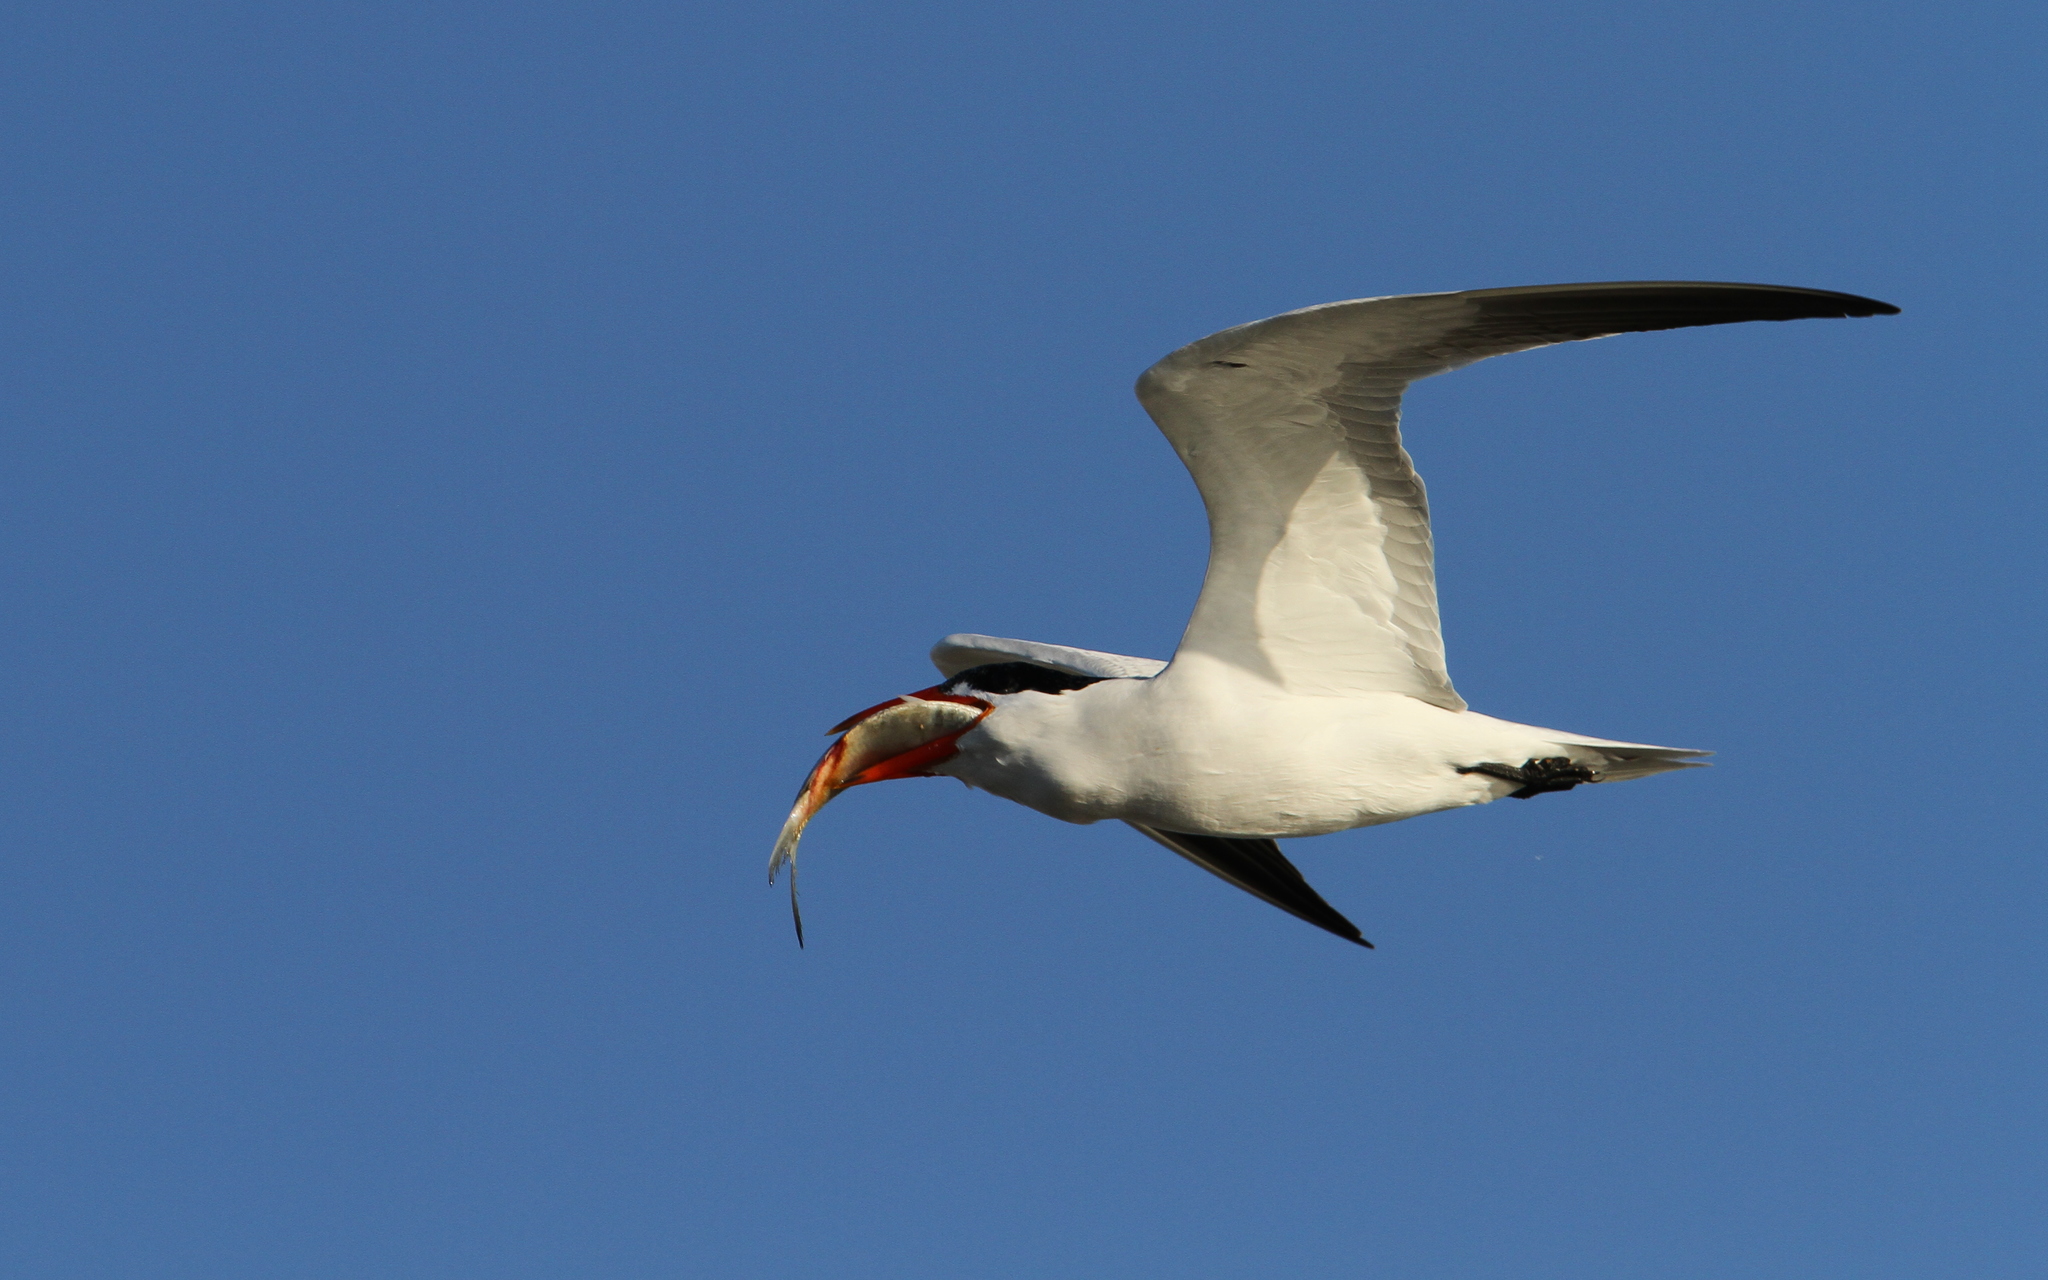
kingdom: Animalia
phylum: Chordata
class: Aves
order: Charadriiformes
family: Laridae
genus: Hydroprogne
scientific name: Hydroprogne caspia
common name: Caspian tern
